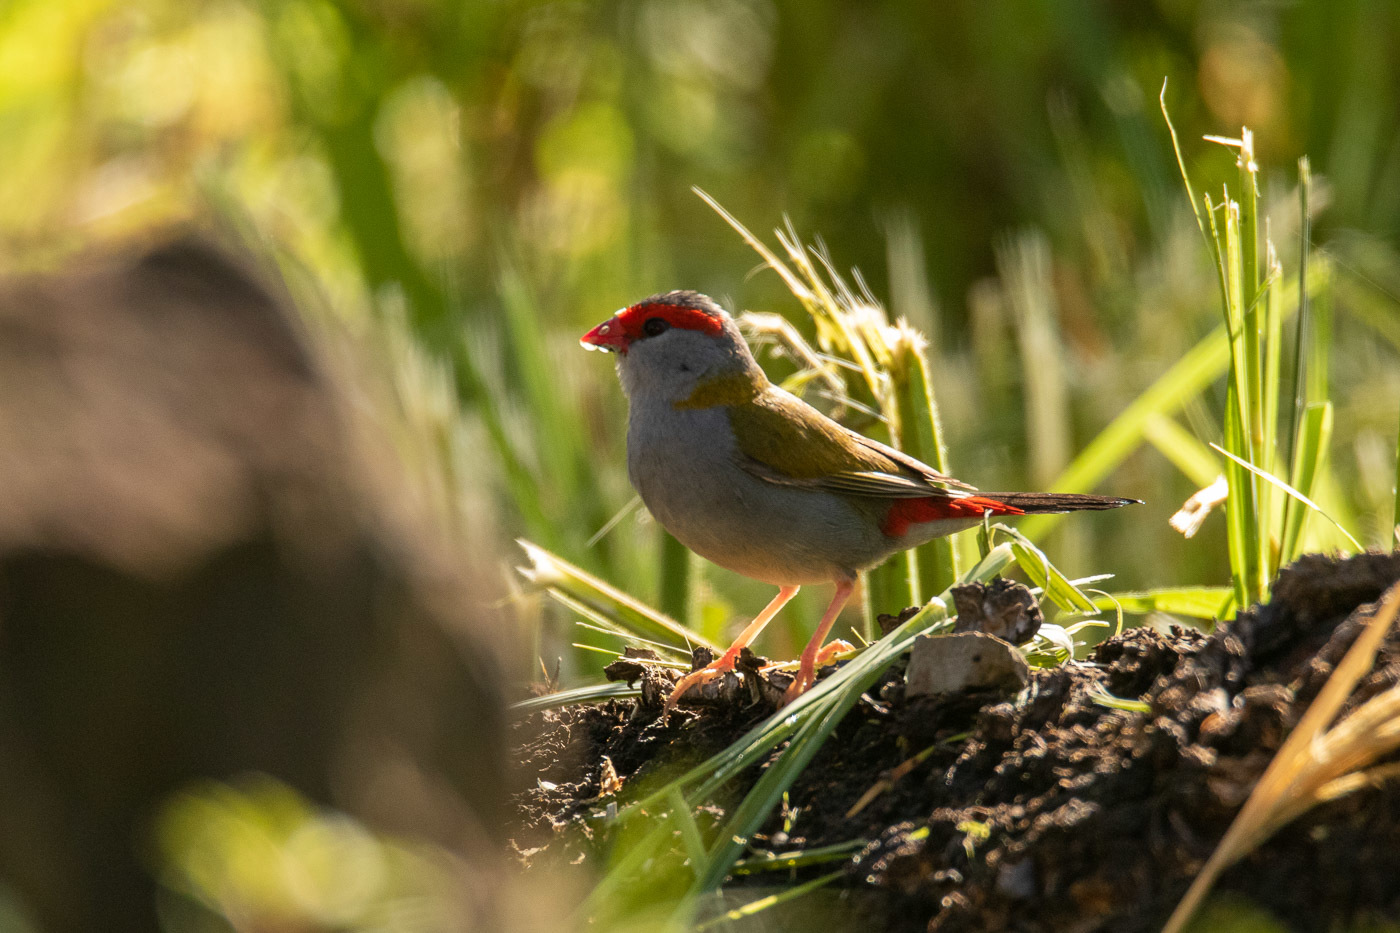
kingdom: Animalia
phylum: Chordata
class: Aves
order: Passeriformes
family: Estrildidae
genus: Neochmia
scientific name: Neochmia temporalis
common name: Red-browed finch
